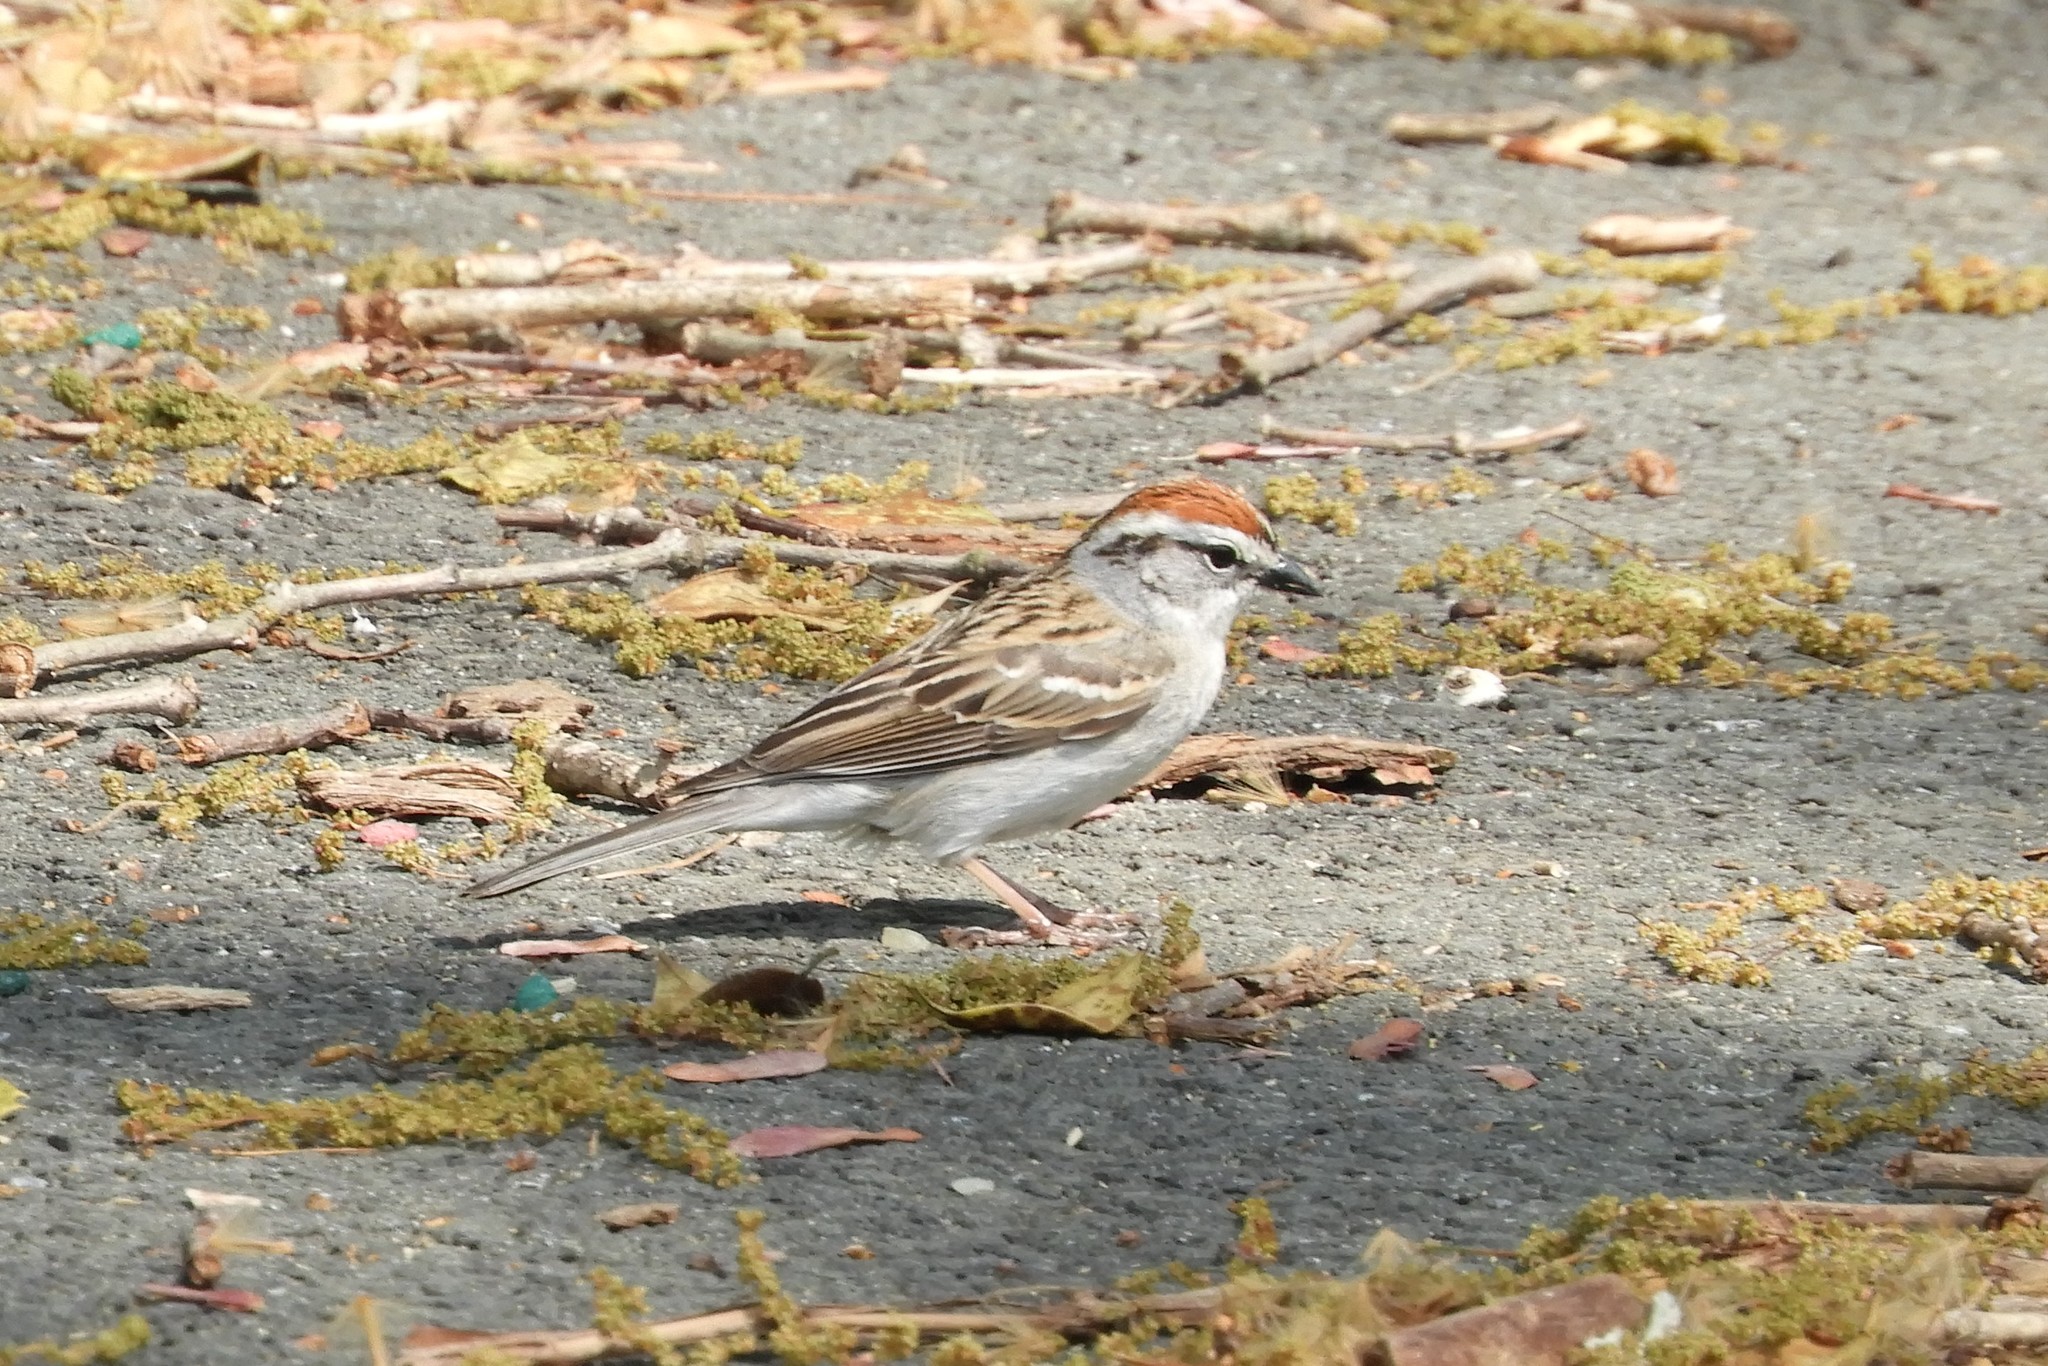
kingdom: Animalia
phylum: Chordata
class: Aves
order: Passeriformes
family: Passerellidae
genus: Spizella
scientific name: Spizella passerina
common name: Chipping sparrow
